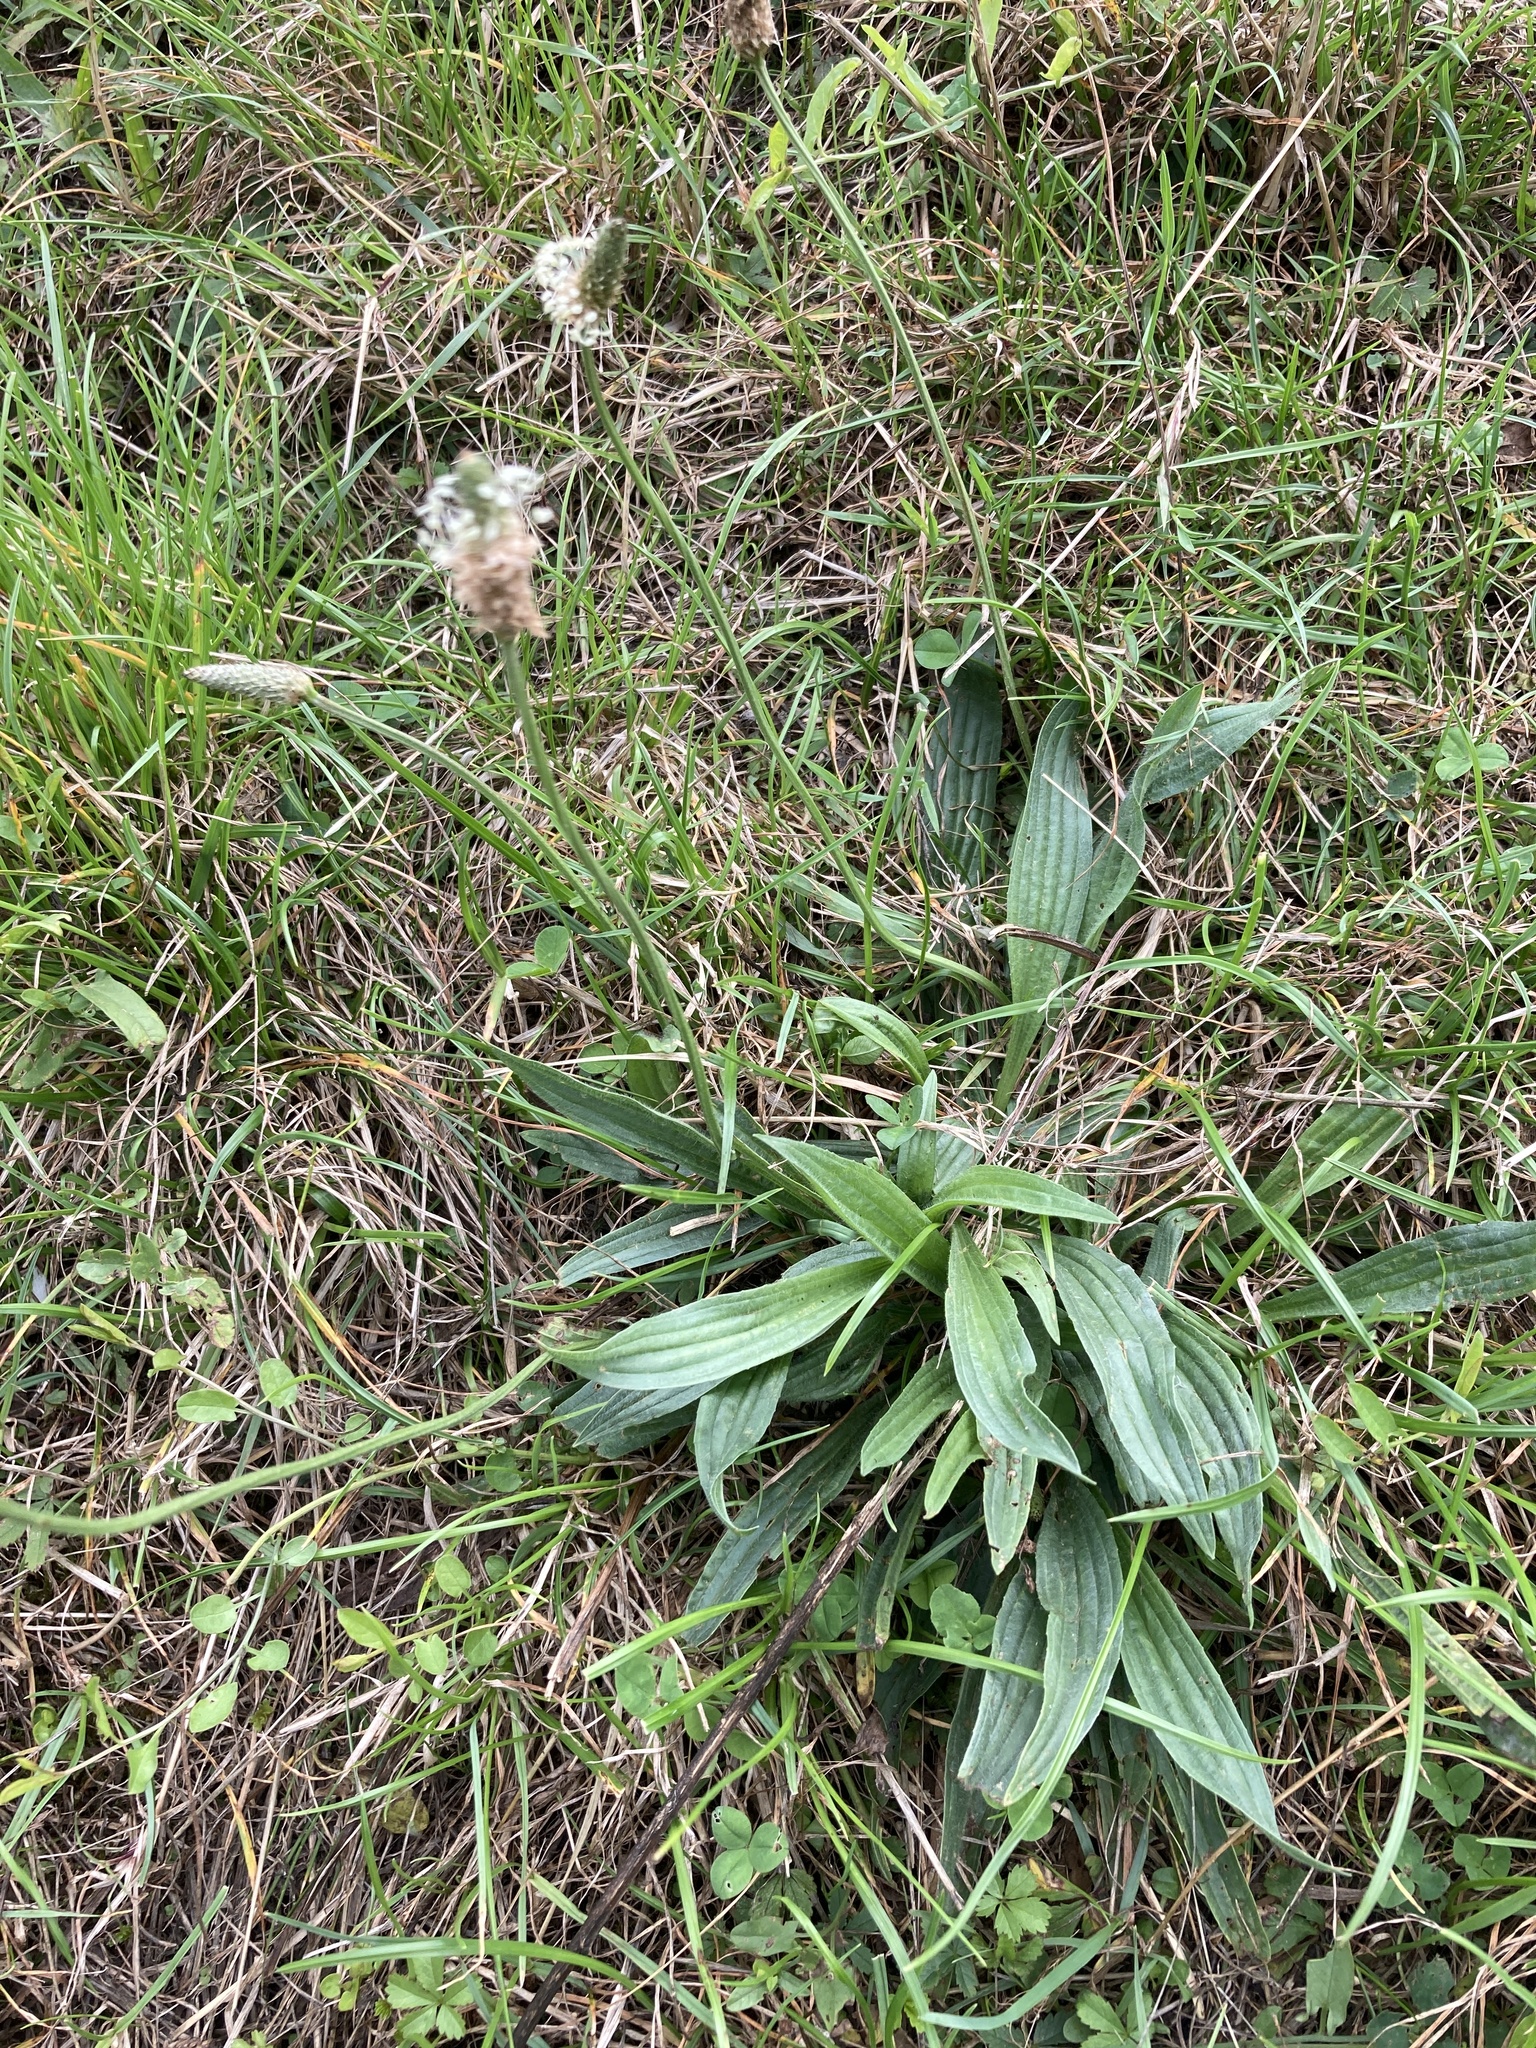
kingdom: Plantae
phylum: Tracheophyta
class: Magnoliopsida
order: Lamiales
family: Plantaginaceae
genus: Plantago
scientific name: Plantago lanceolata
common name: Ribwort plantain
